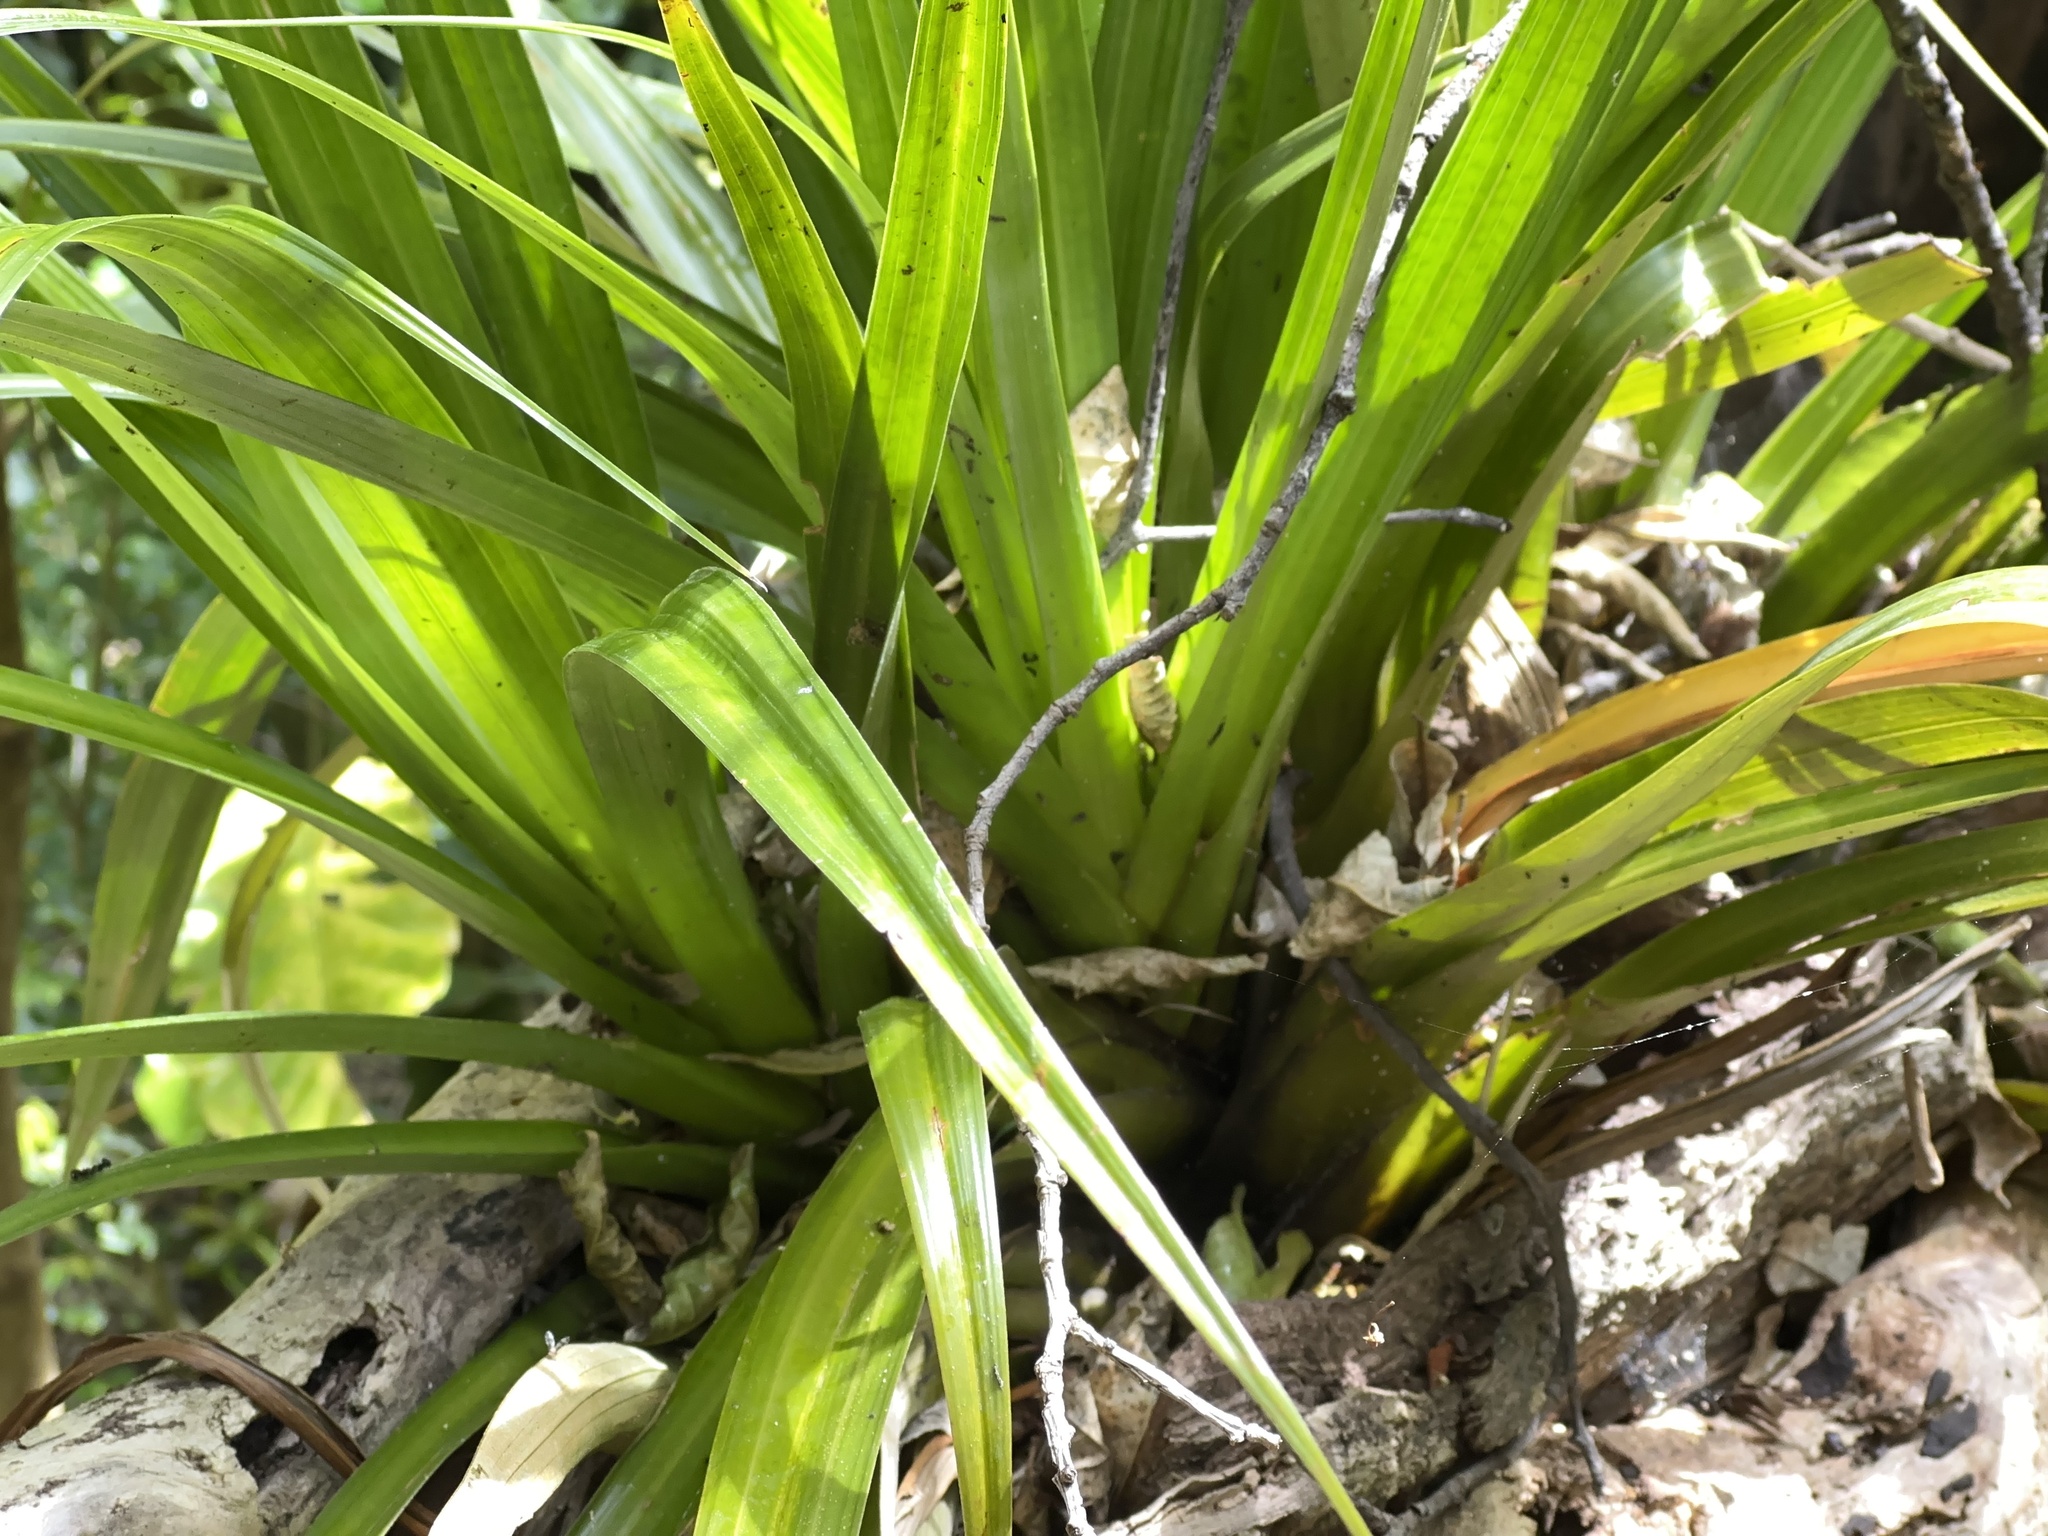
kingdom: Plantae
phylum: Tracheophyta
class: Liliopsida
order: Asparagales
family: Asteliaceae
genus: Astelia
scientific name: Astelia hastata
